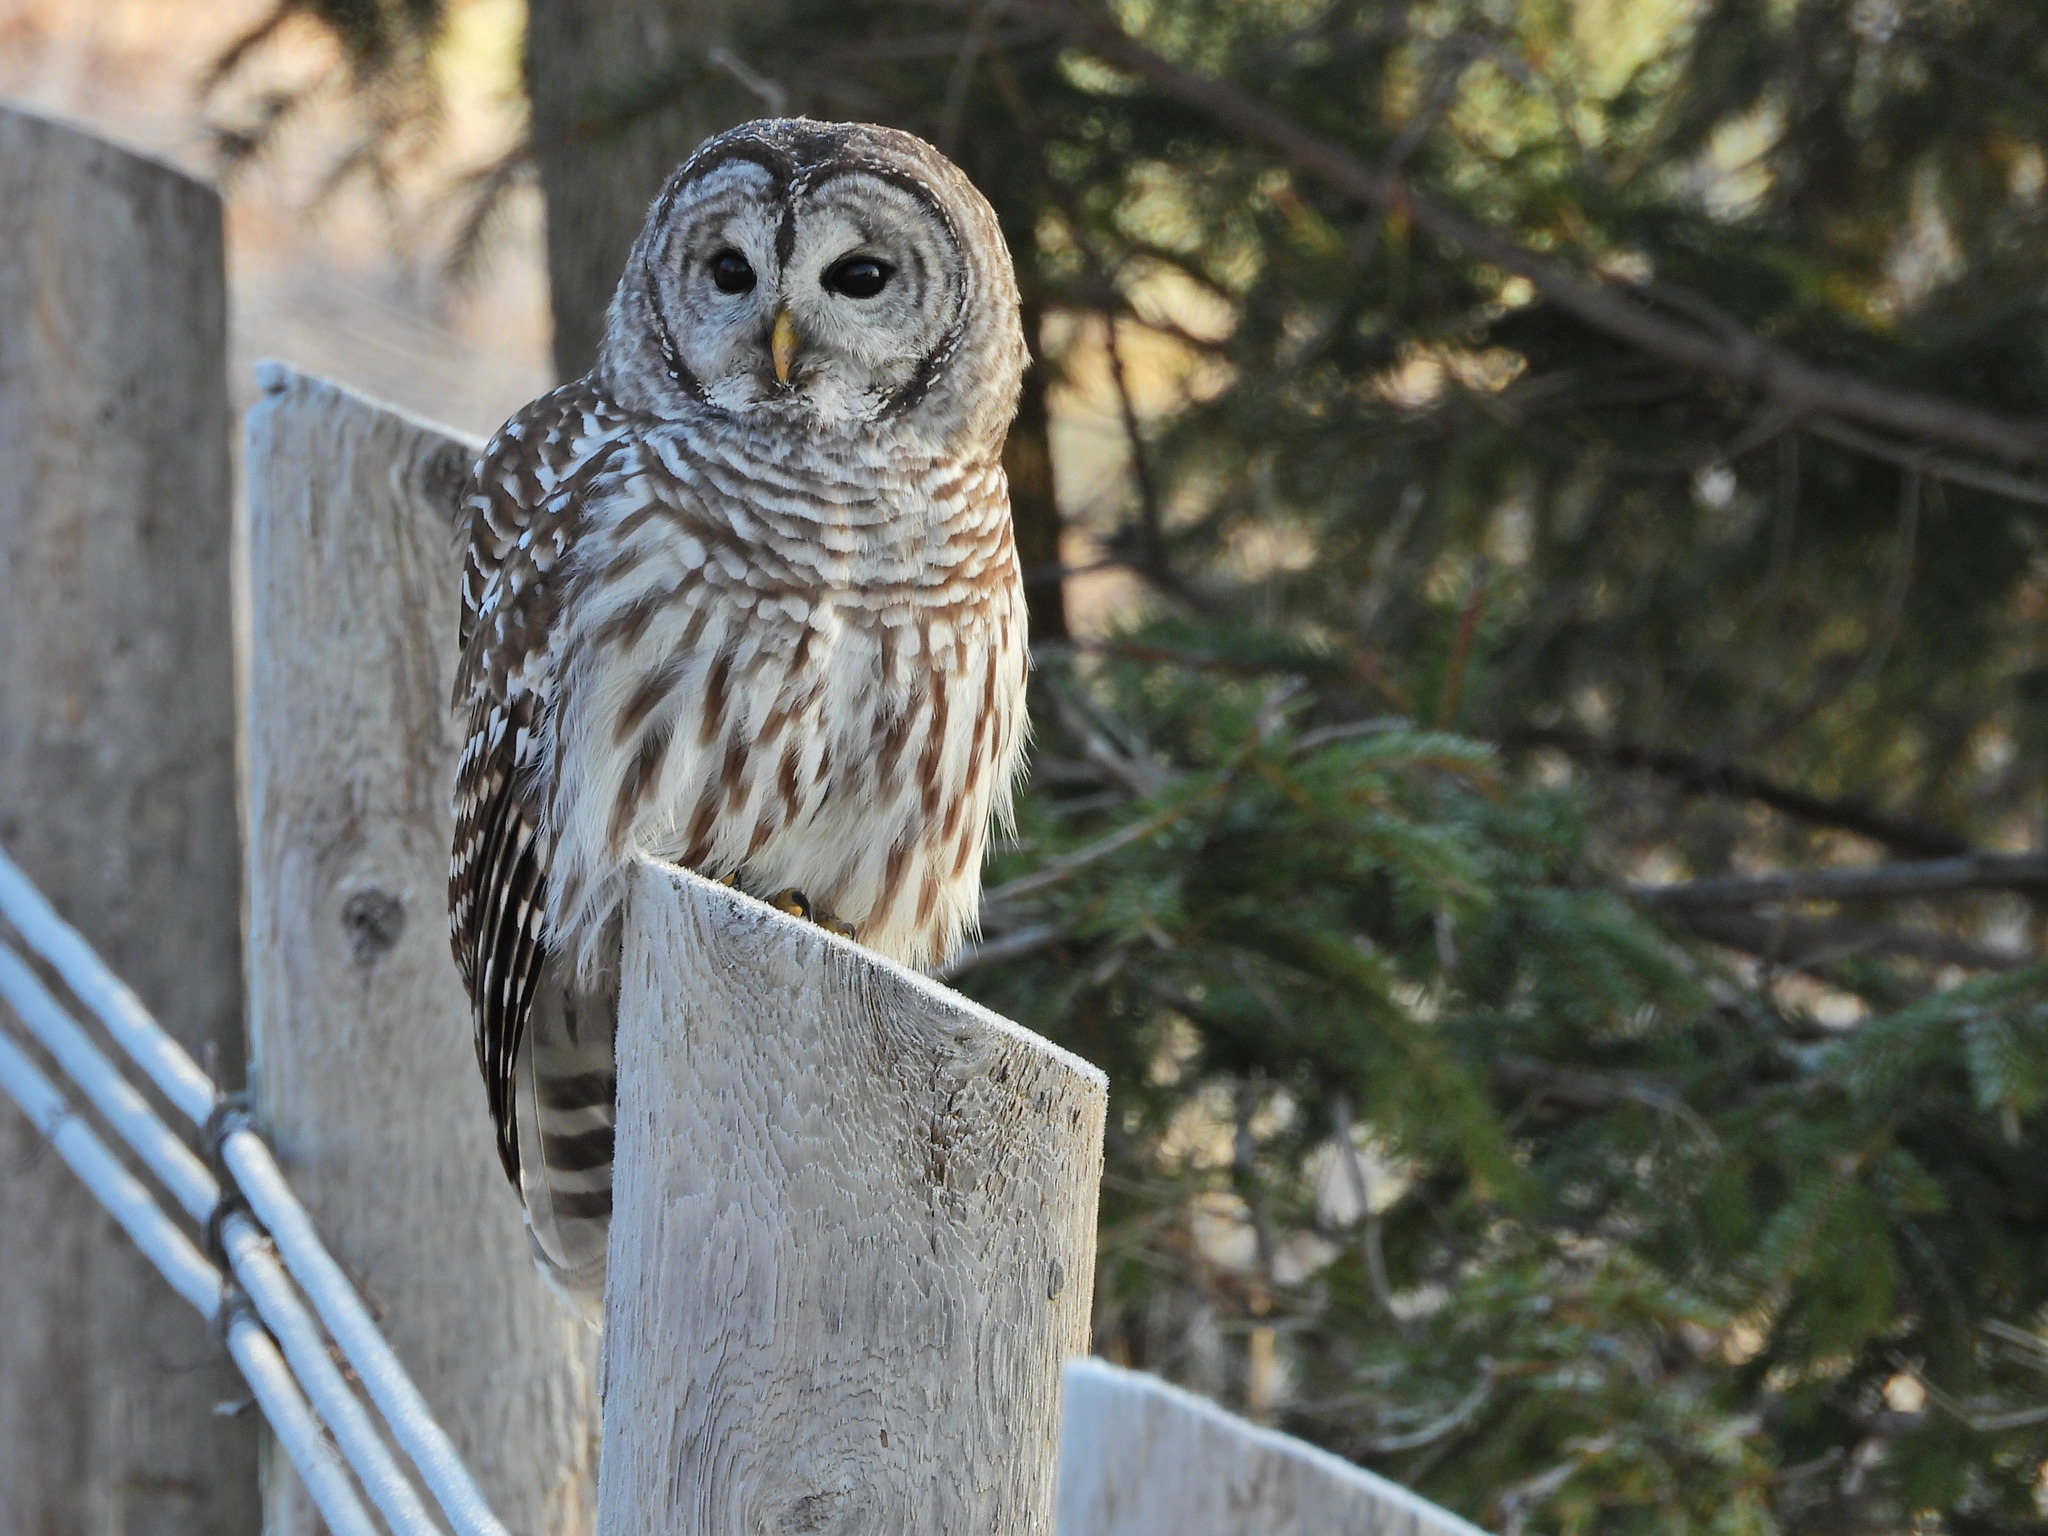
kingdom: Animalia
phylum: Chordata
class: Aves
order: Strigiformes
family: Strigidae
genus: Strix
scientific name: Strix varia
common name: Barred owl
